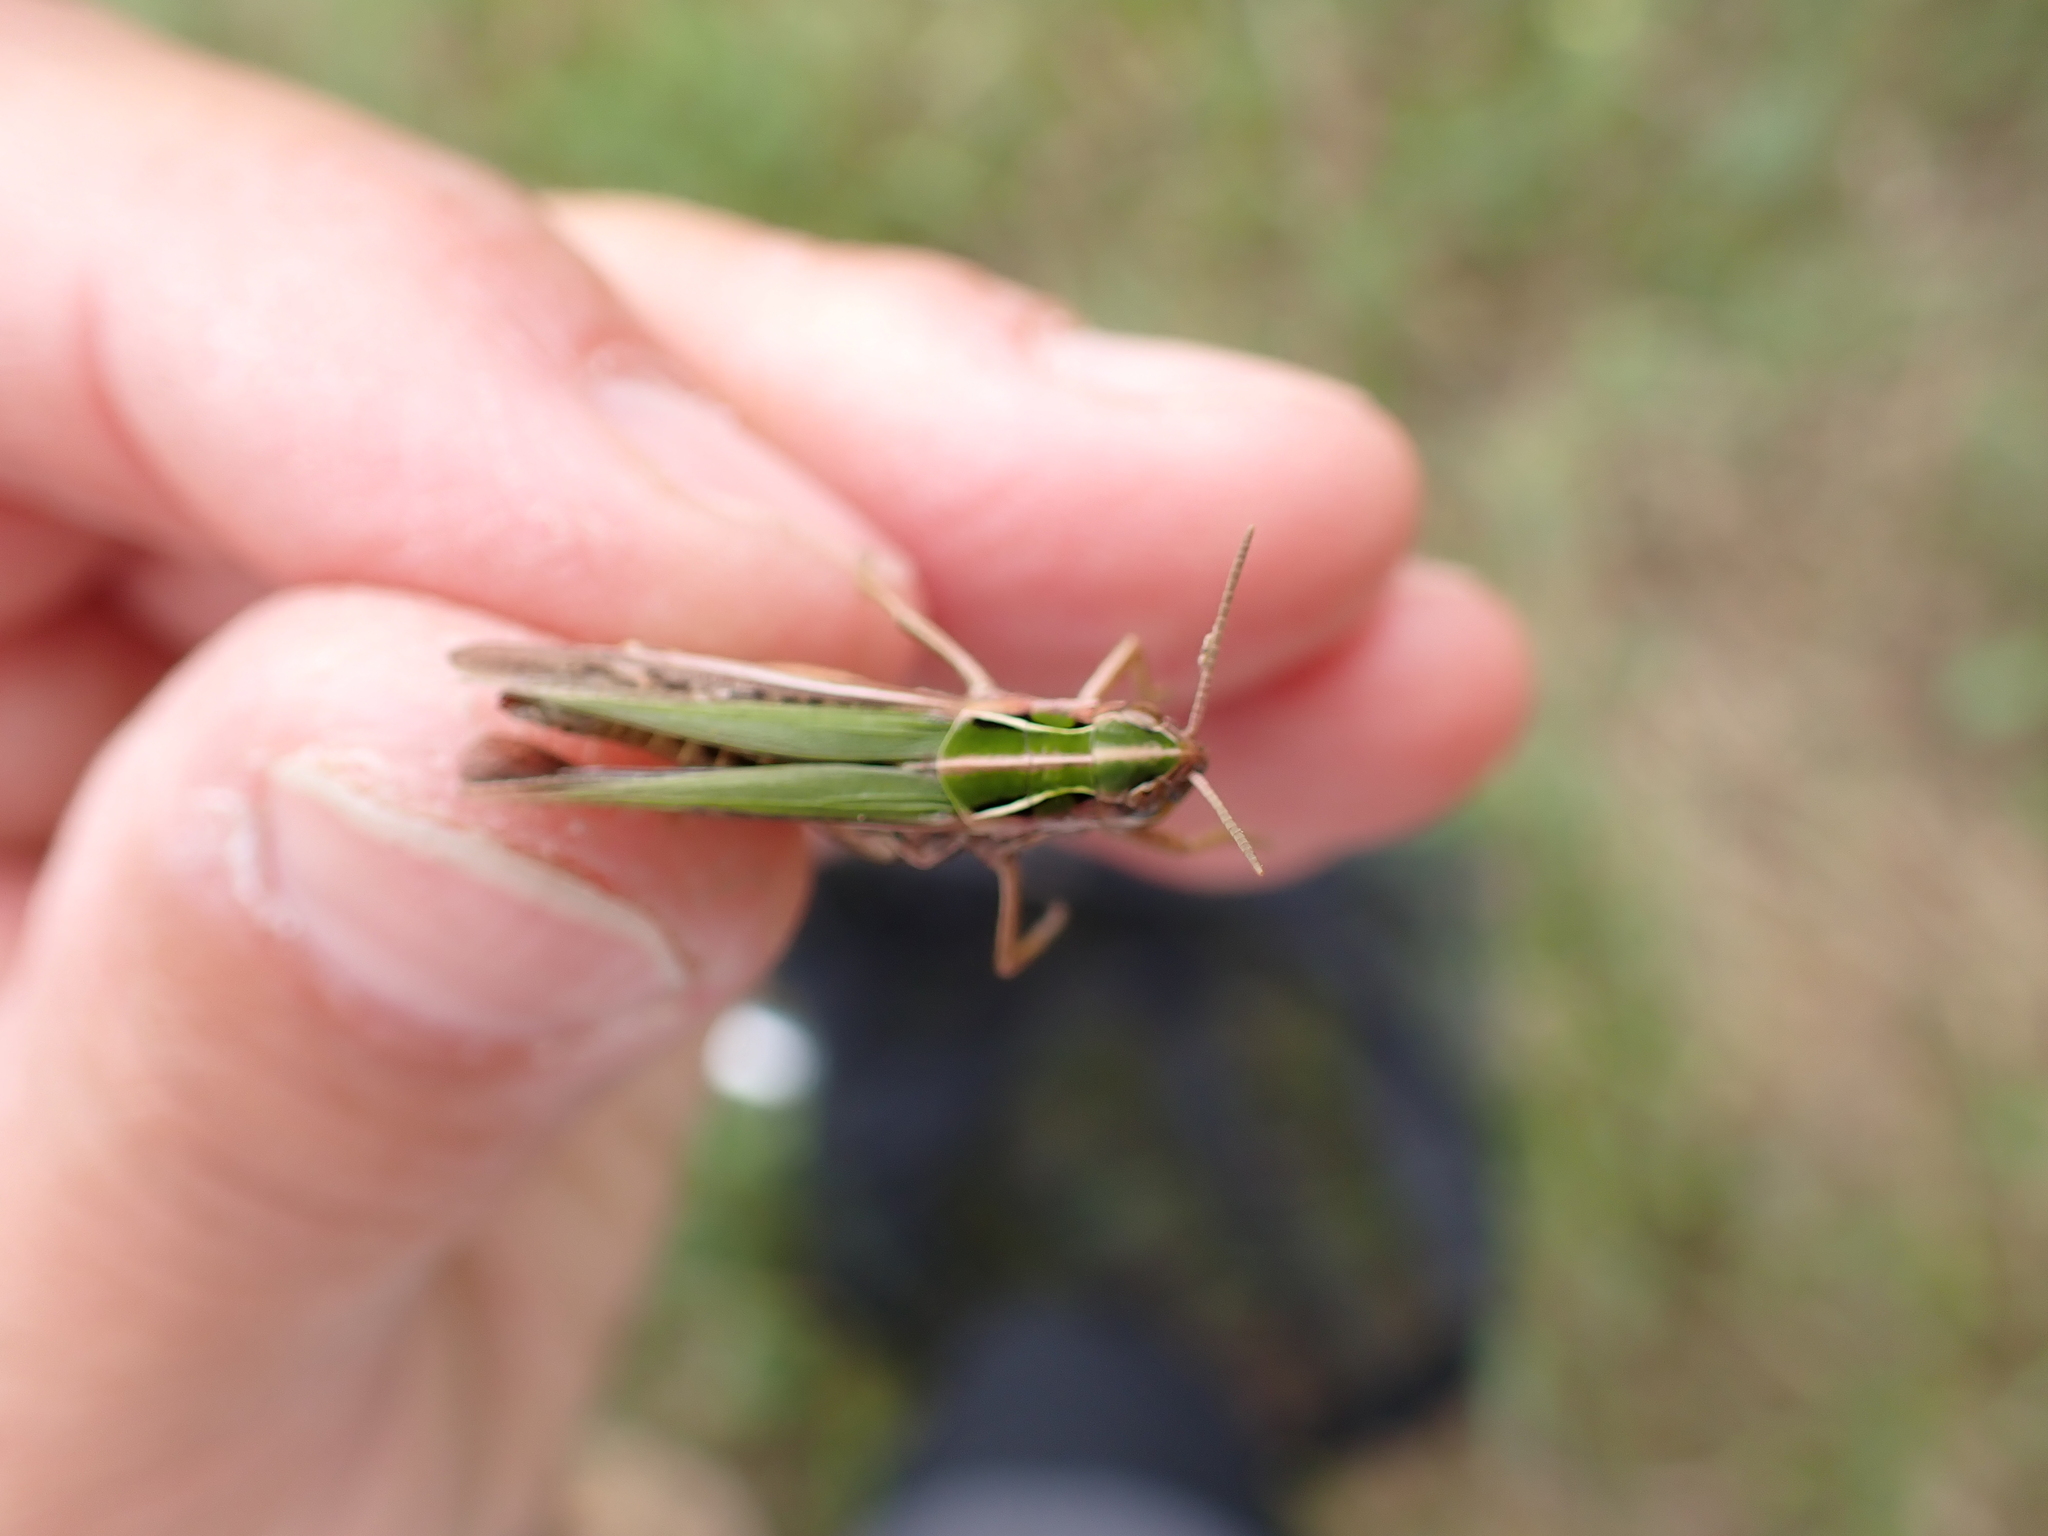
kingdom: Animalia
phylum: Arthropoda
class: Insecta
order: Orthoptera
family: Acrididae
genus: Omocestus
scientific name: Omocestus viridulus
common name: Common green grasshopper
